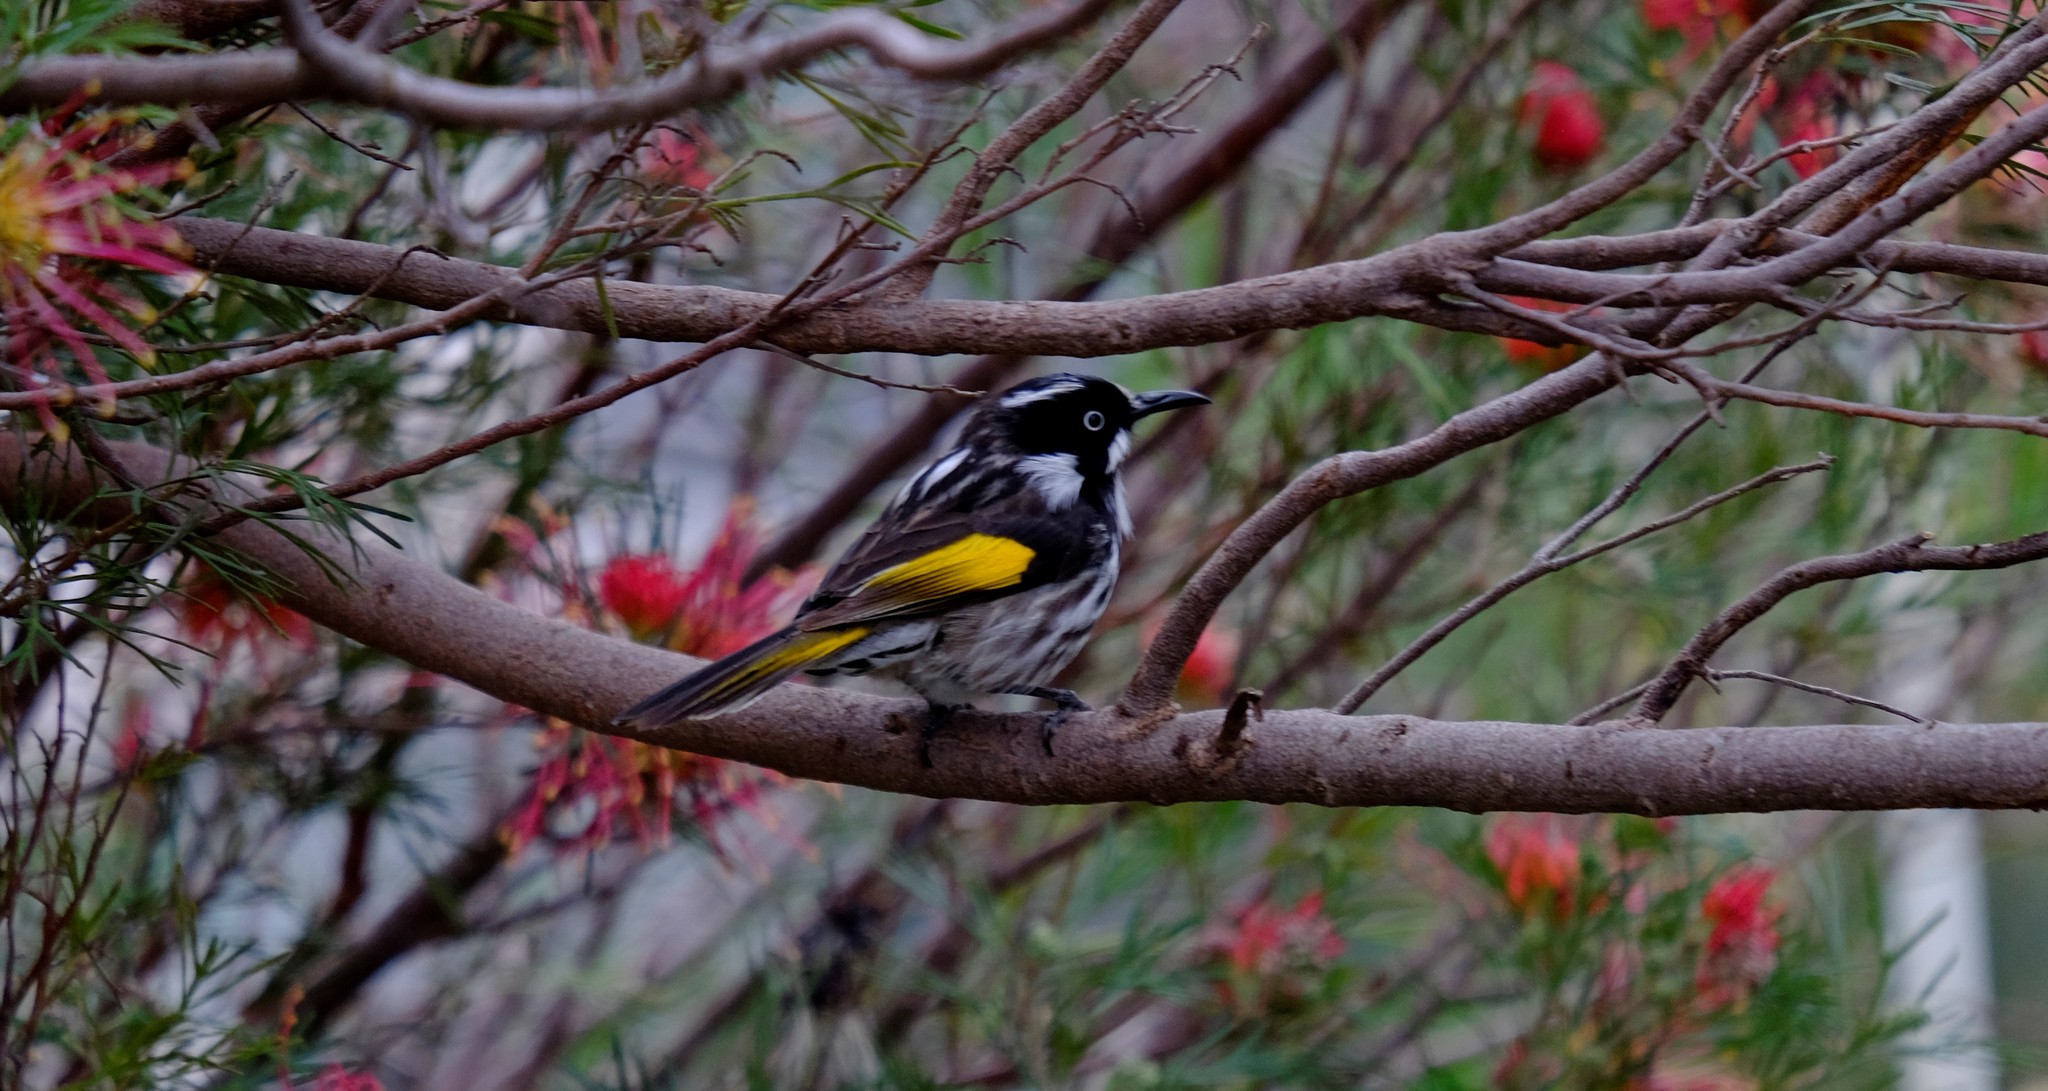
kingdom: Animalia
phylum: Chordata
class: Aves
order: Passeriformes
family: Meliphagidae
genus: Phylidonyris
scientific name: Phylidonyris novaehollandiae
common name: New holland honeyeater
